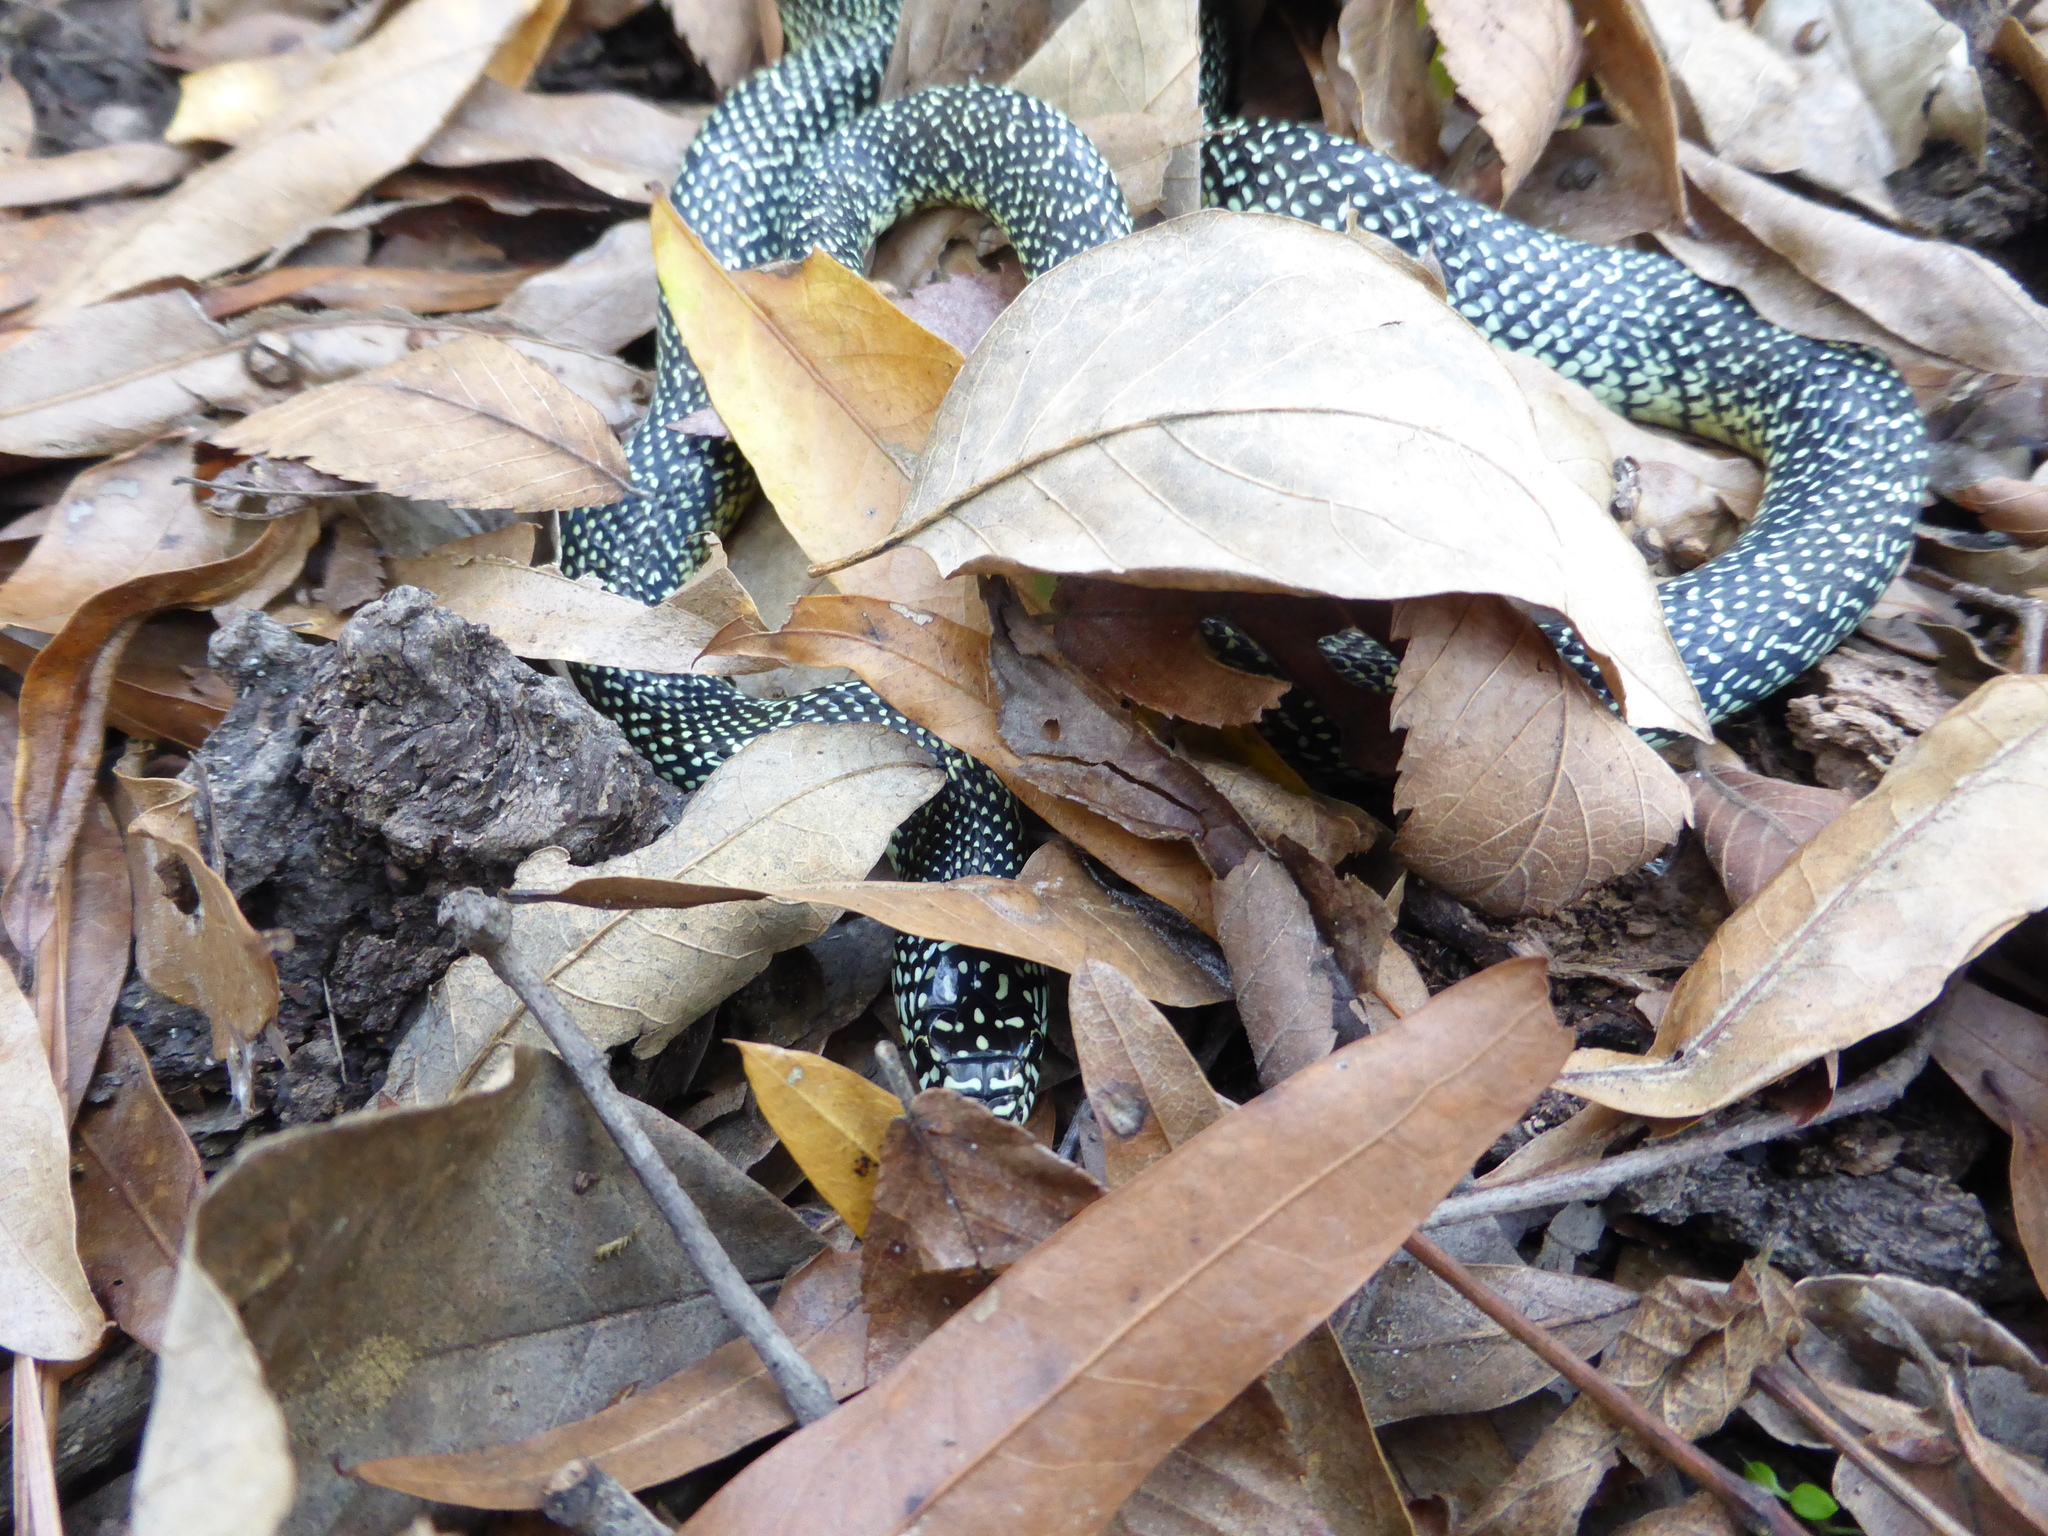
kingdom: Animalia
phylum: Chordata
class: Squamata
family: Colubridae
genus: Lampropeltis
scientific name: Lampropeltis holbrooki
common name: Speckled kingsnake
